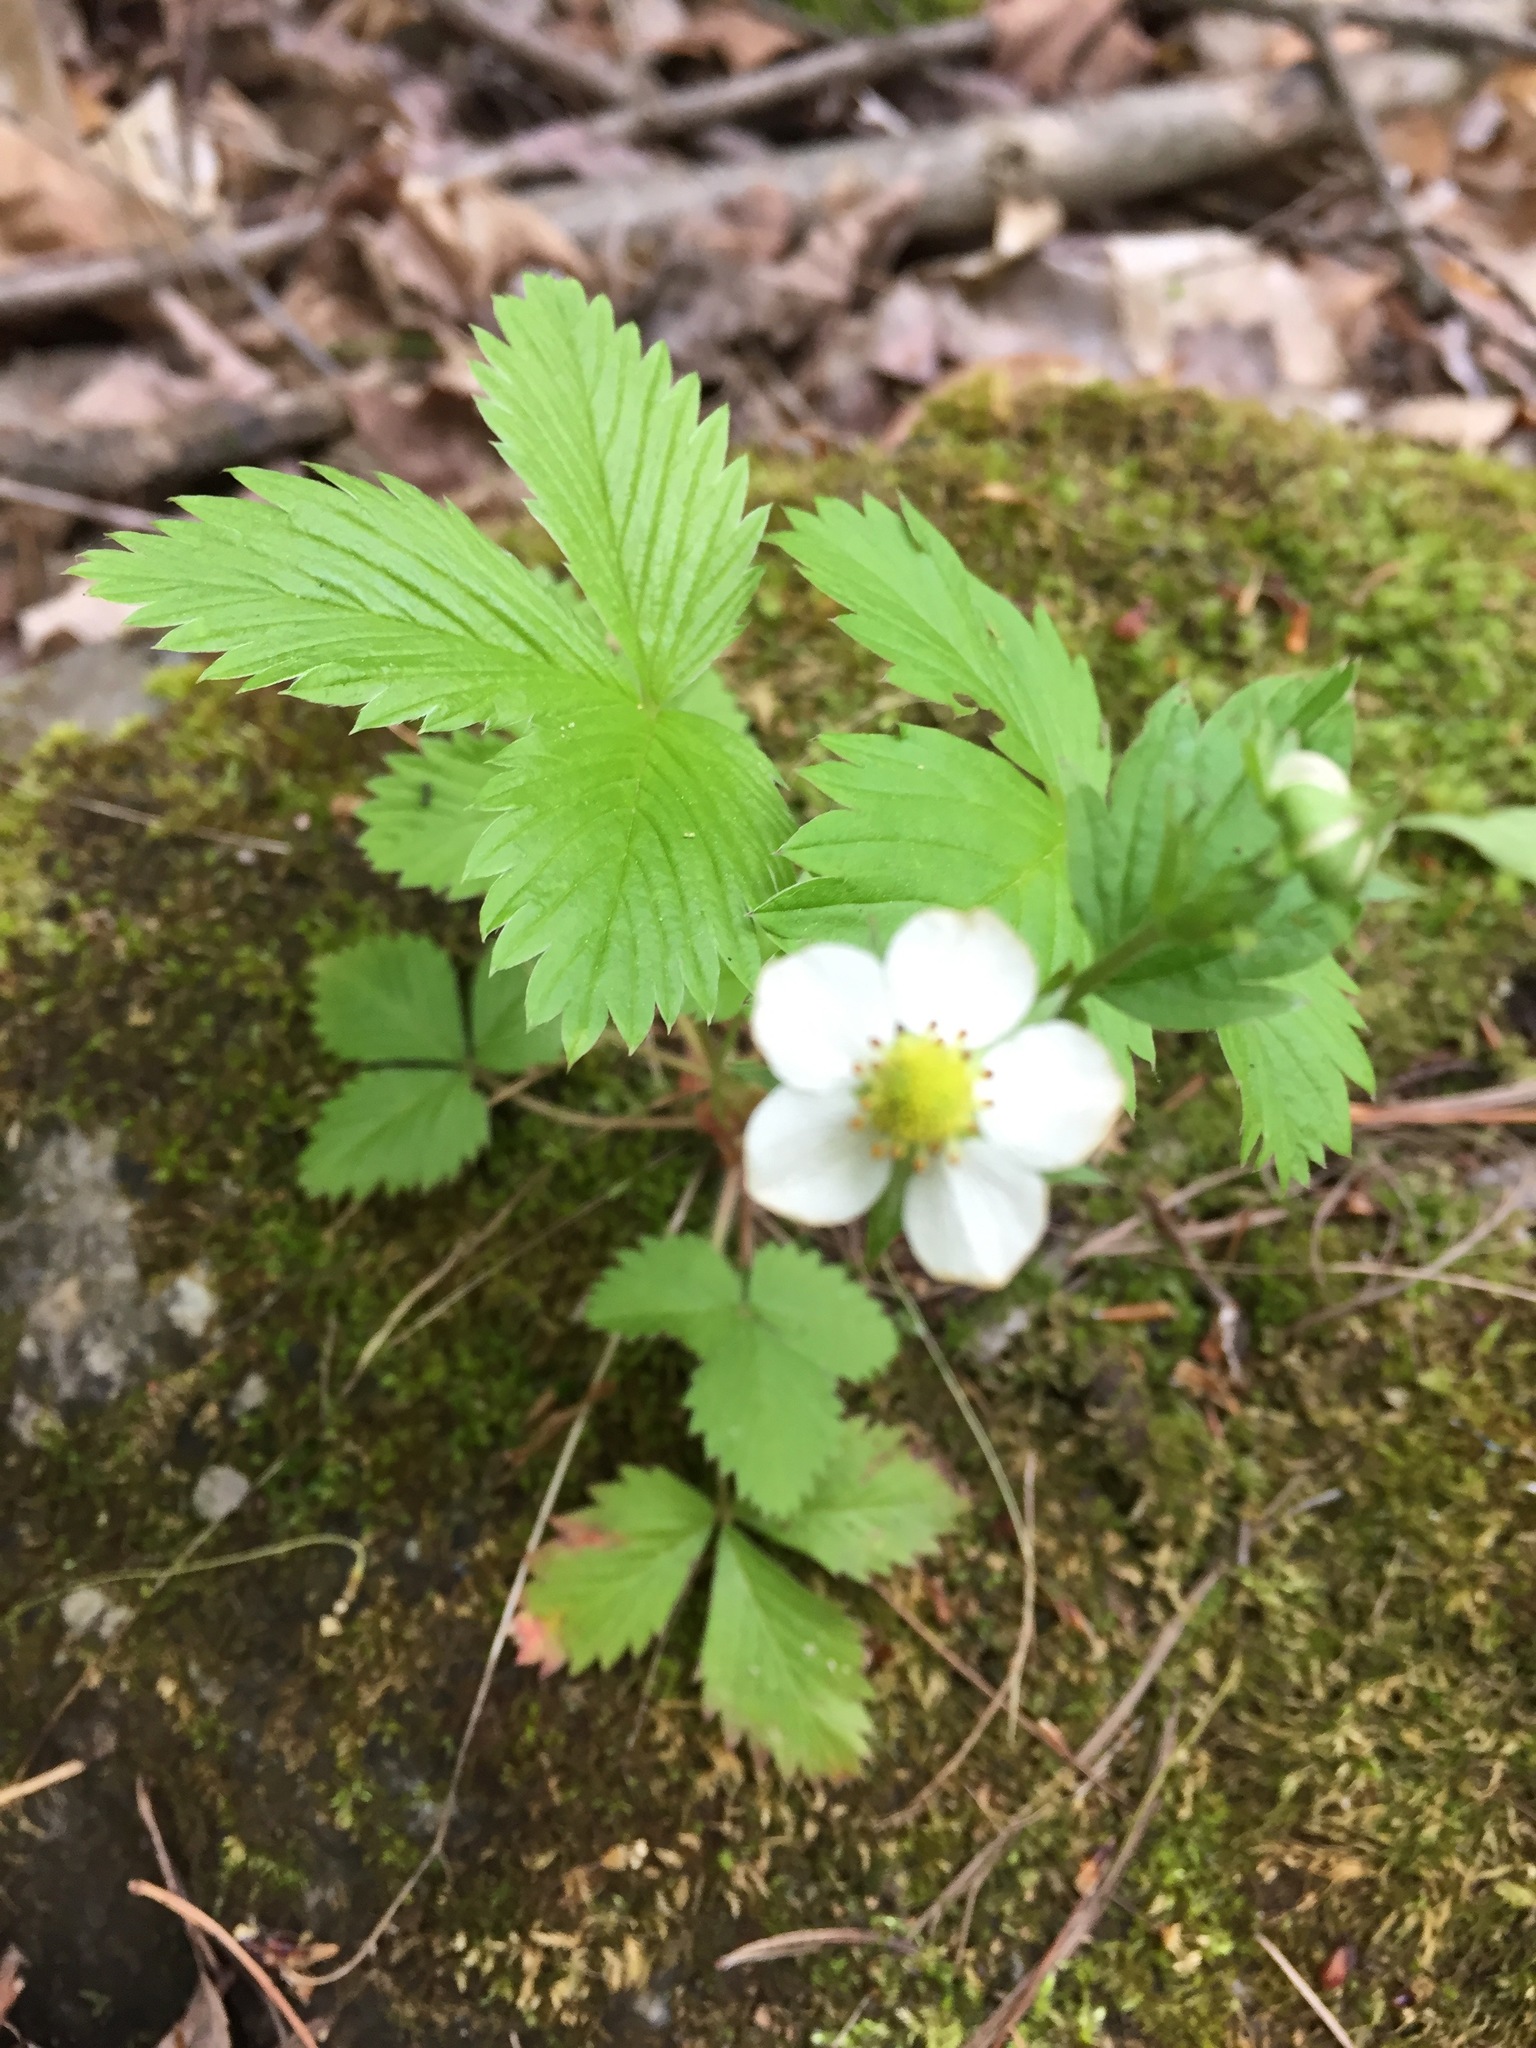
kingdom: Plantae
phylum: Tracheophyta
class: Magnoliopsida
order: Rosales
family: Rosaceae
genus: Fragaria
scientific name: Fragaria vesca
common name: Wild strawberry
